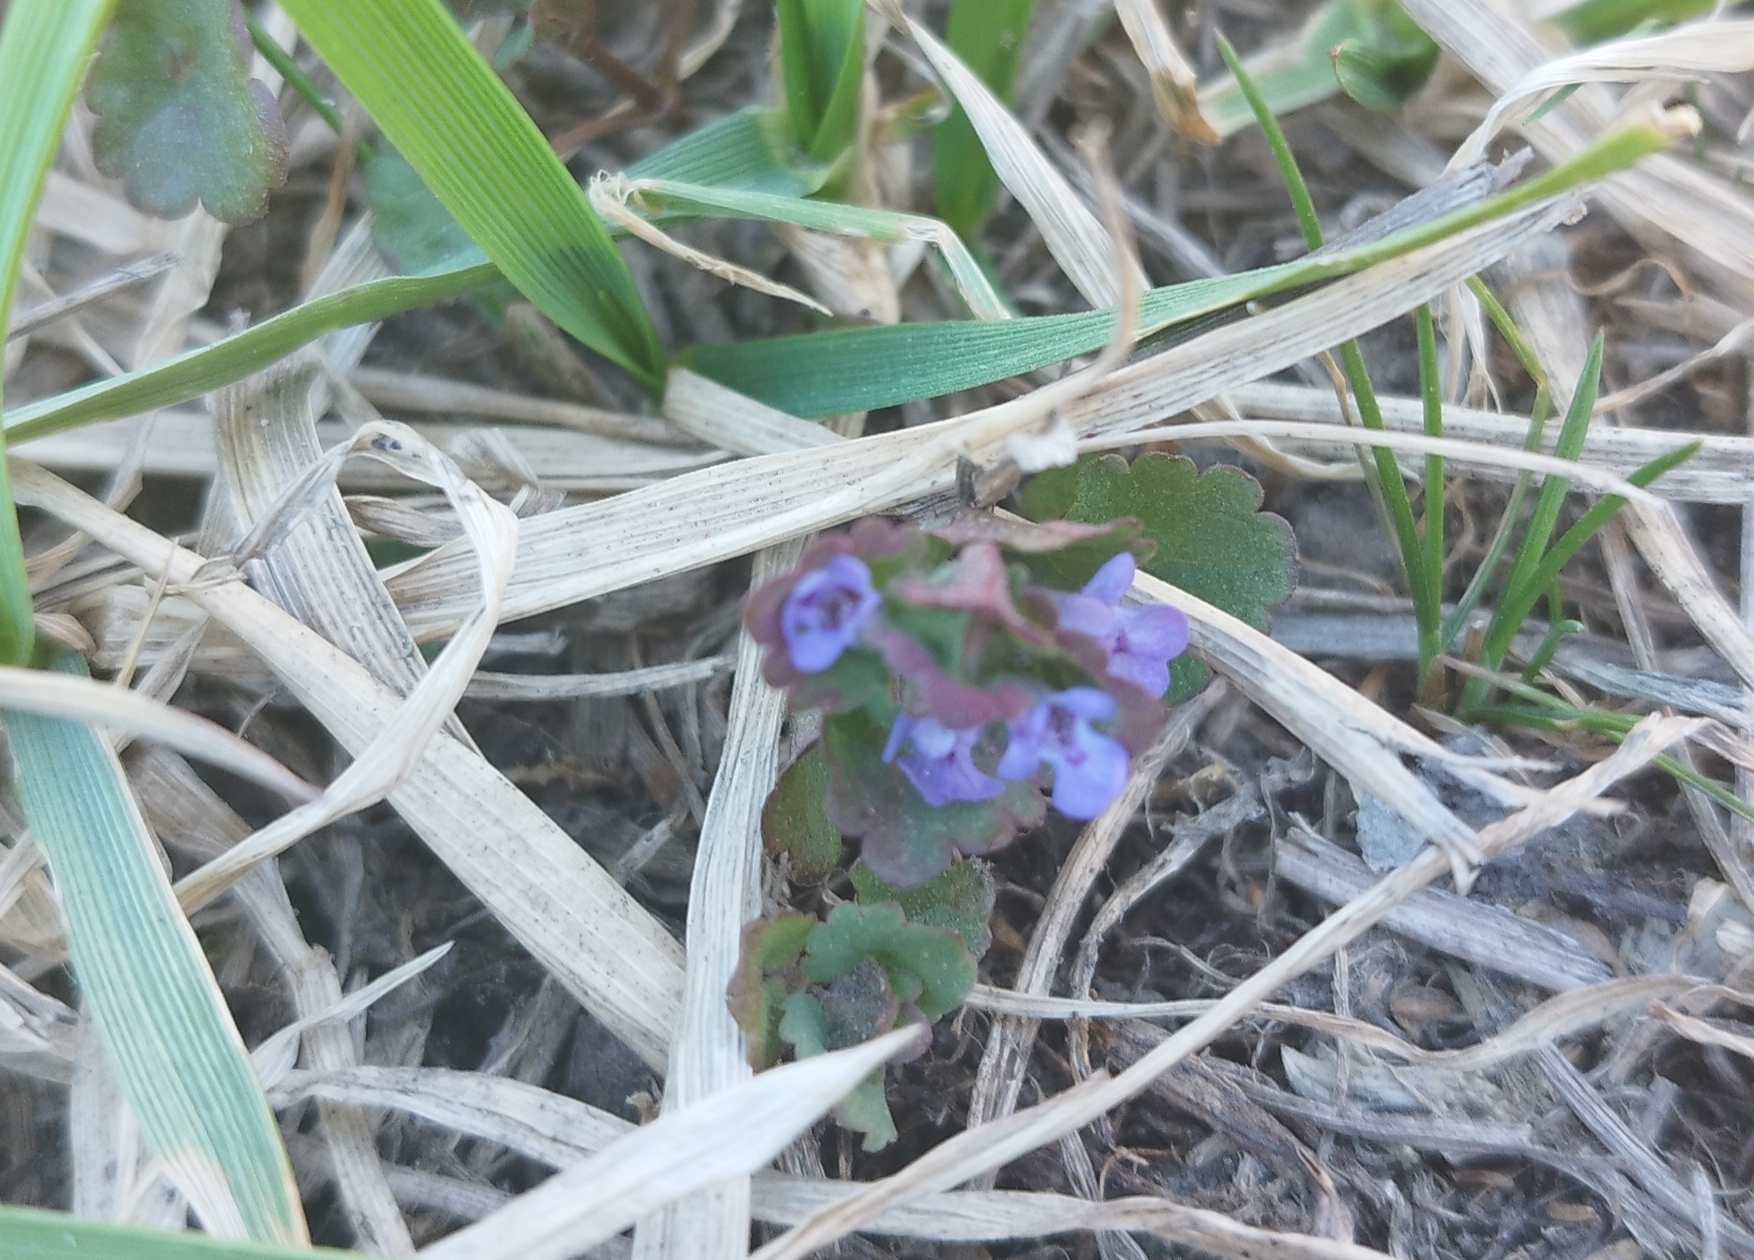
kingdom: Plantae
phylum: Tracheophyta
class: Magnoliopsida
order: Lamiales
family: Lamiaceae
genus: Glechoma
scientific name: Glechoma hederacea
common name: Ground ivy
